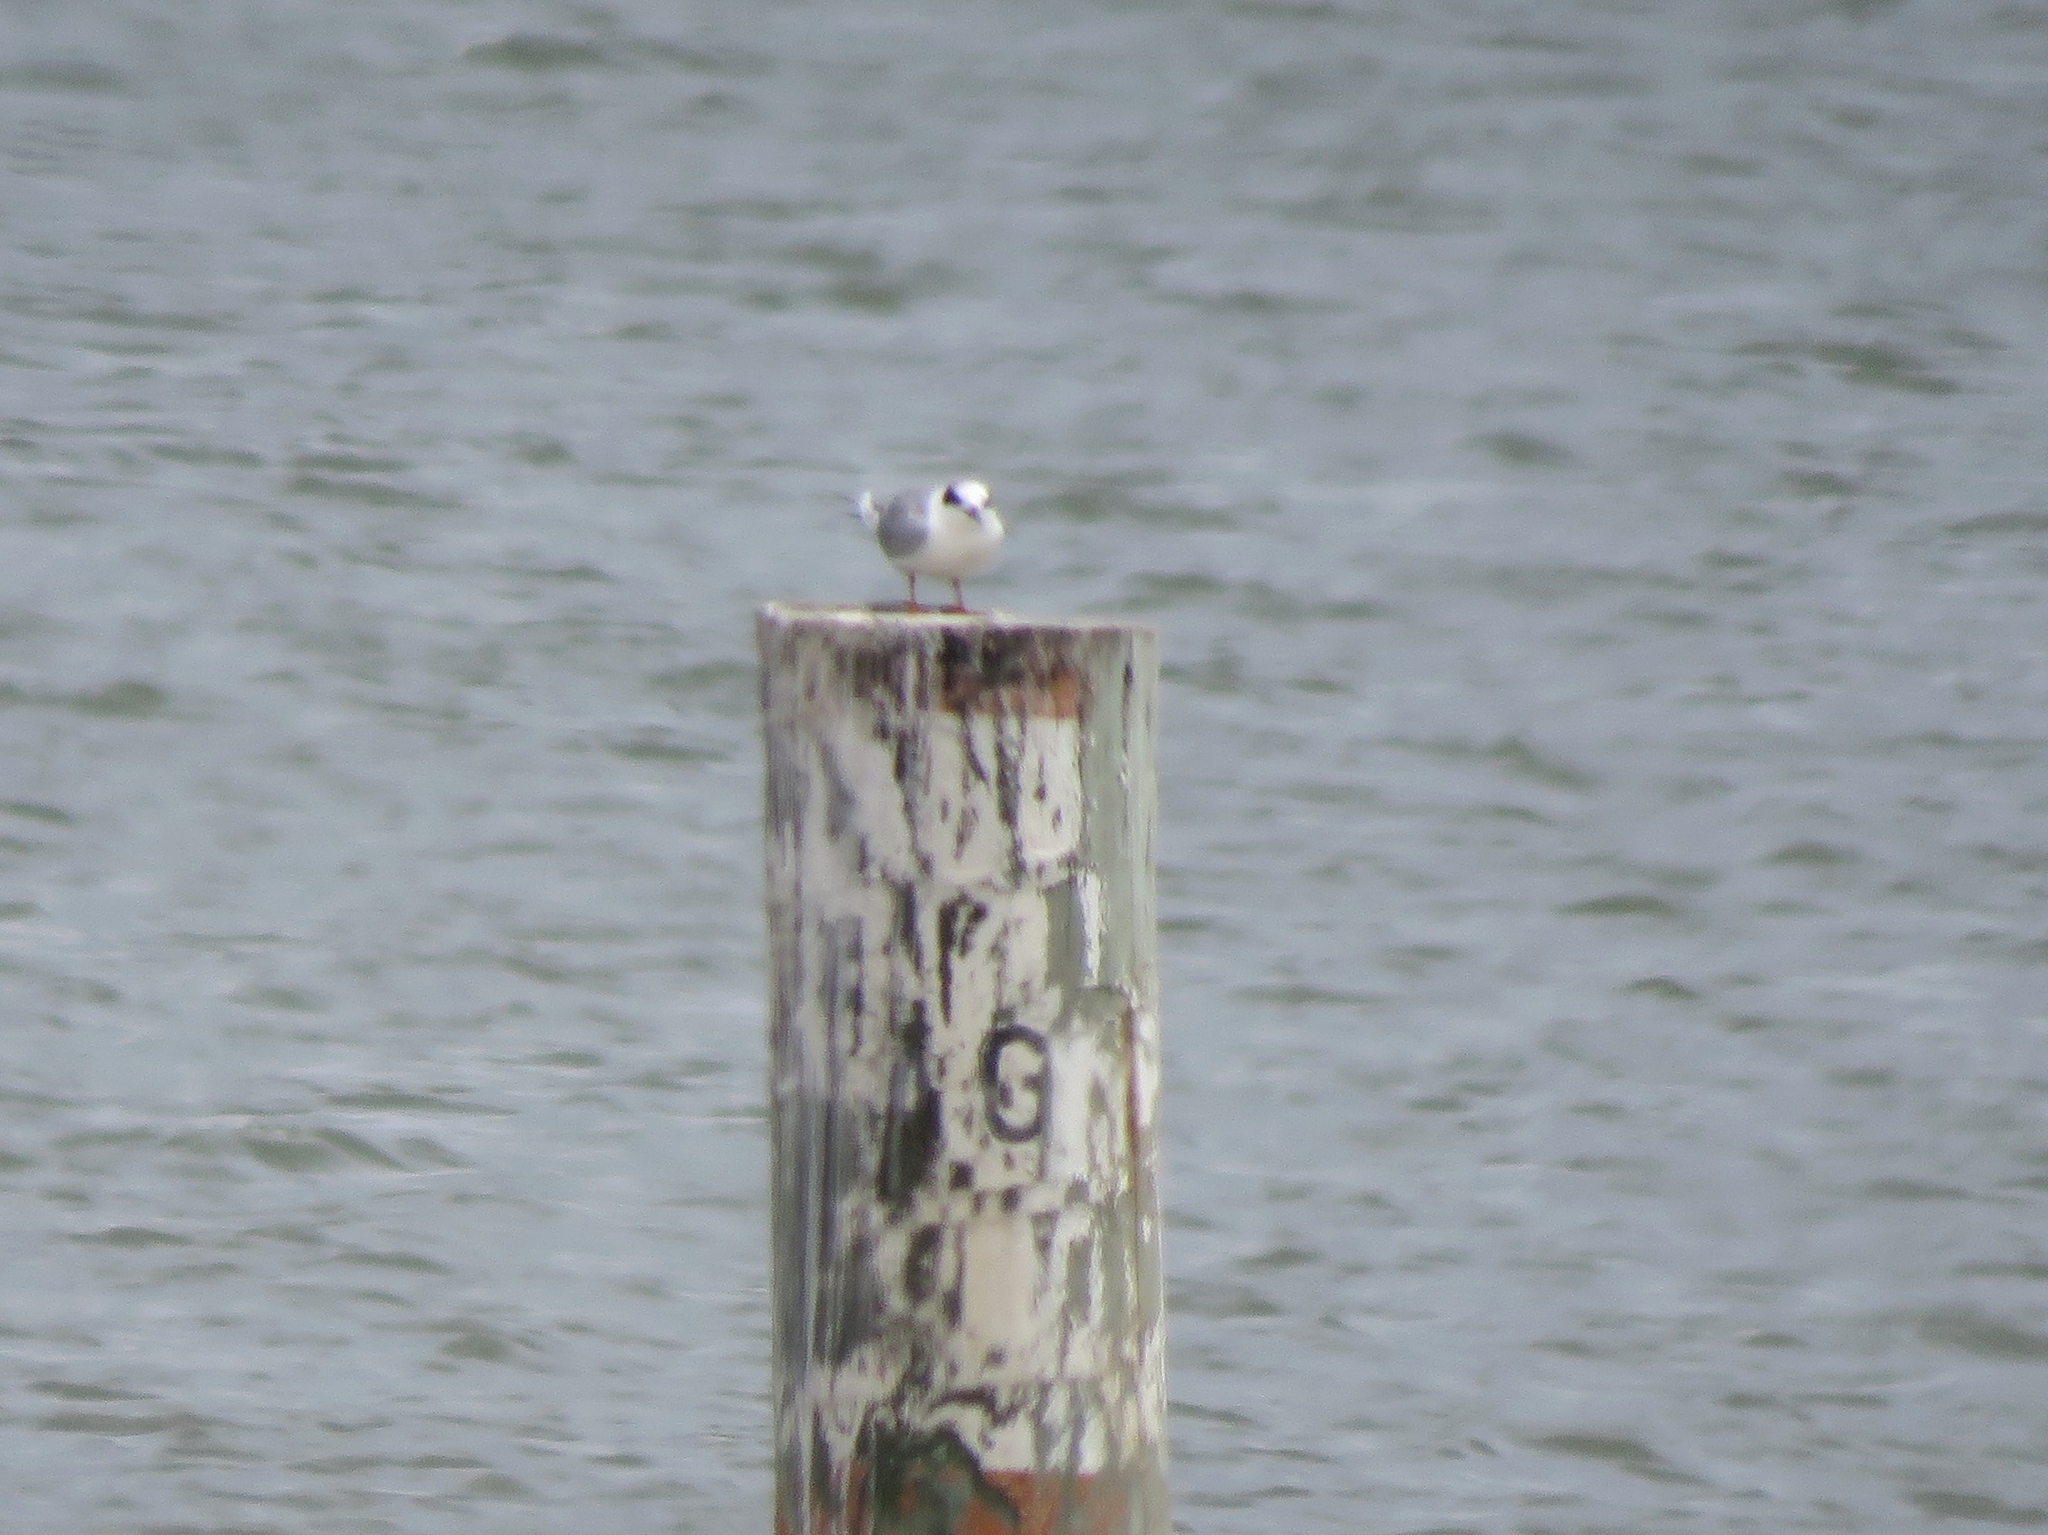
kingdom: Animalia
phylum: Chordata
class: Aves
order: Charadriiformes
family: Laridae
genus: Sterna
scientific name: Sterna forsteri
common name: Forster's tern
